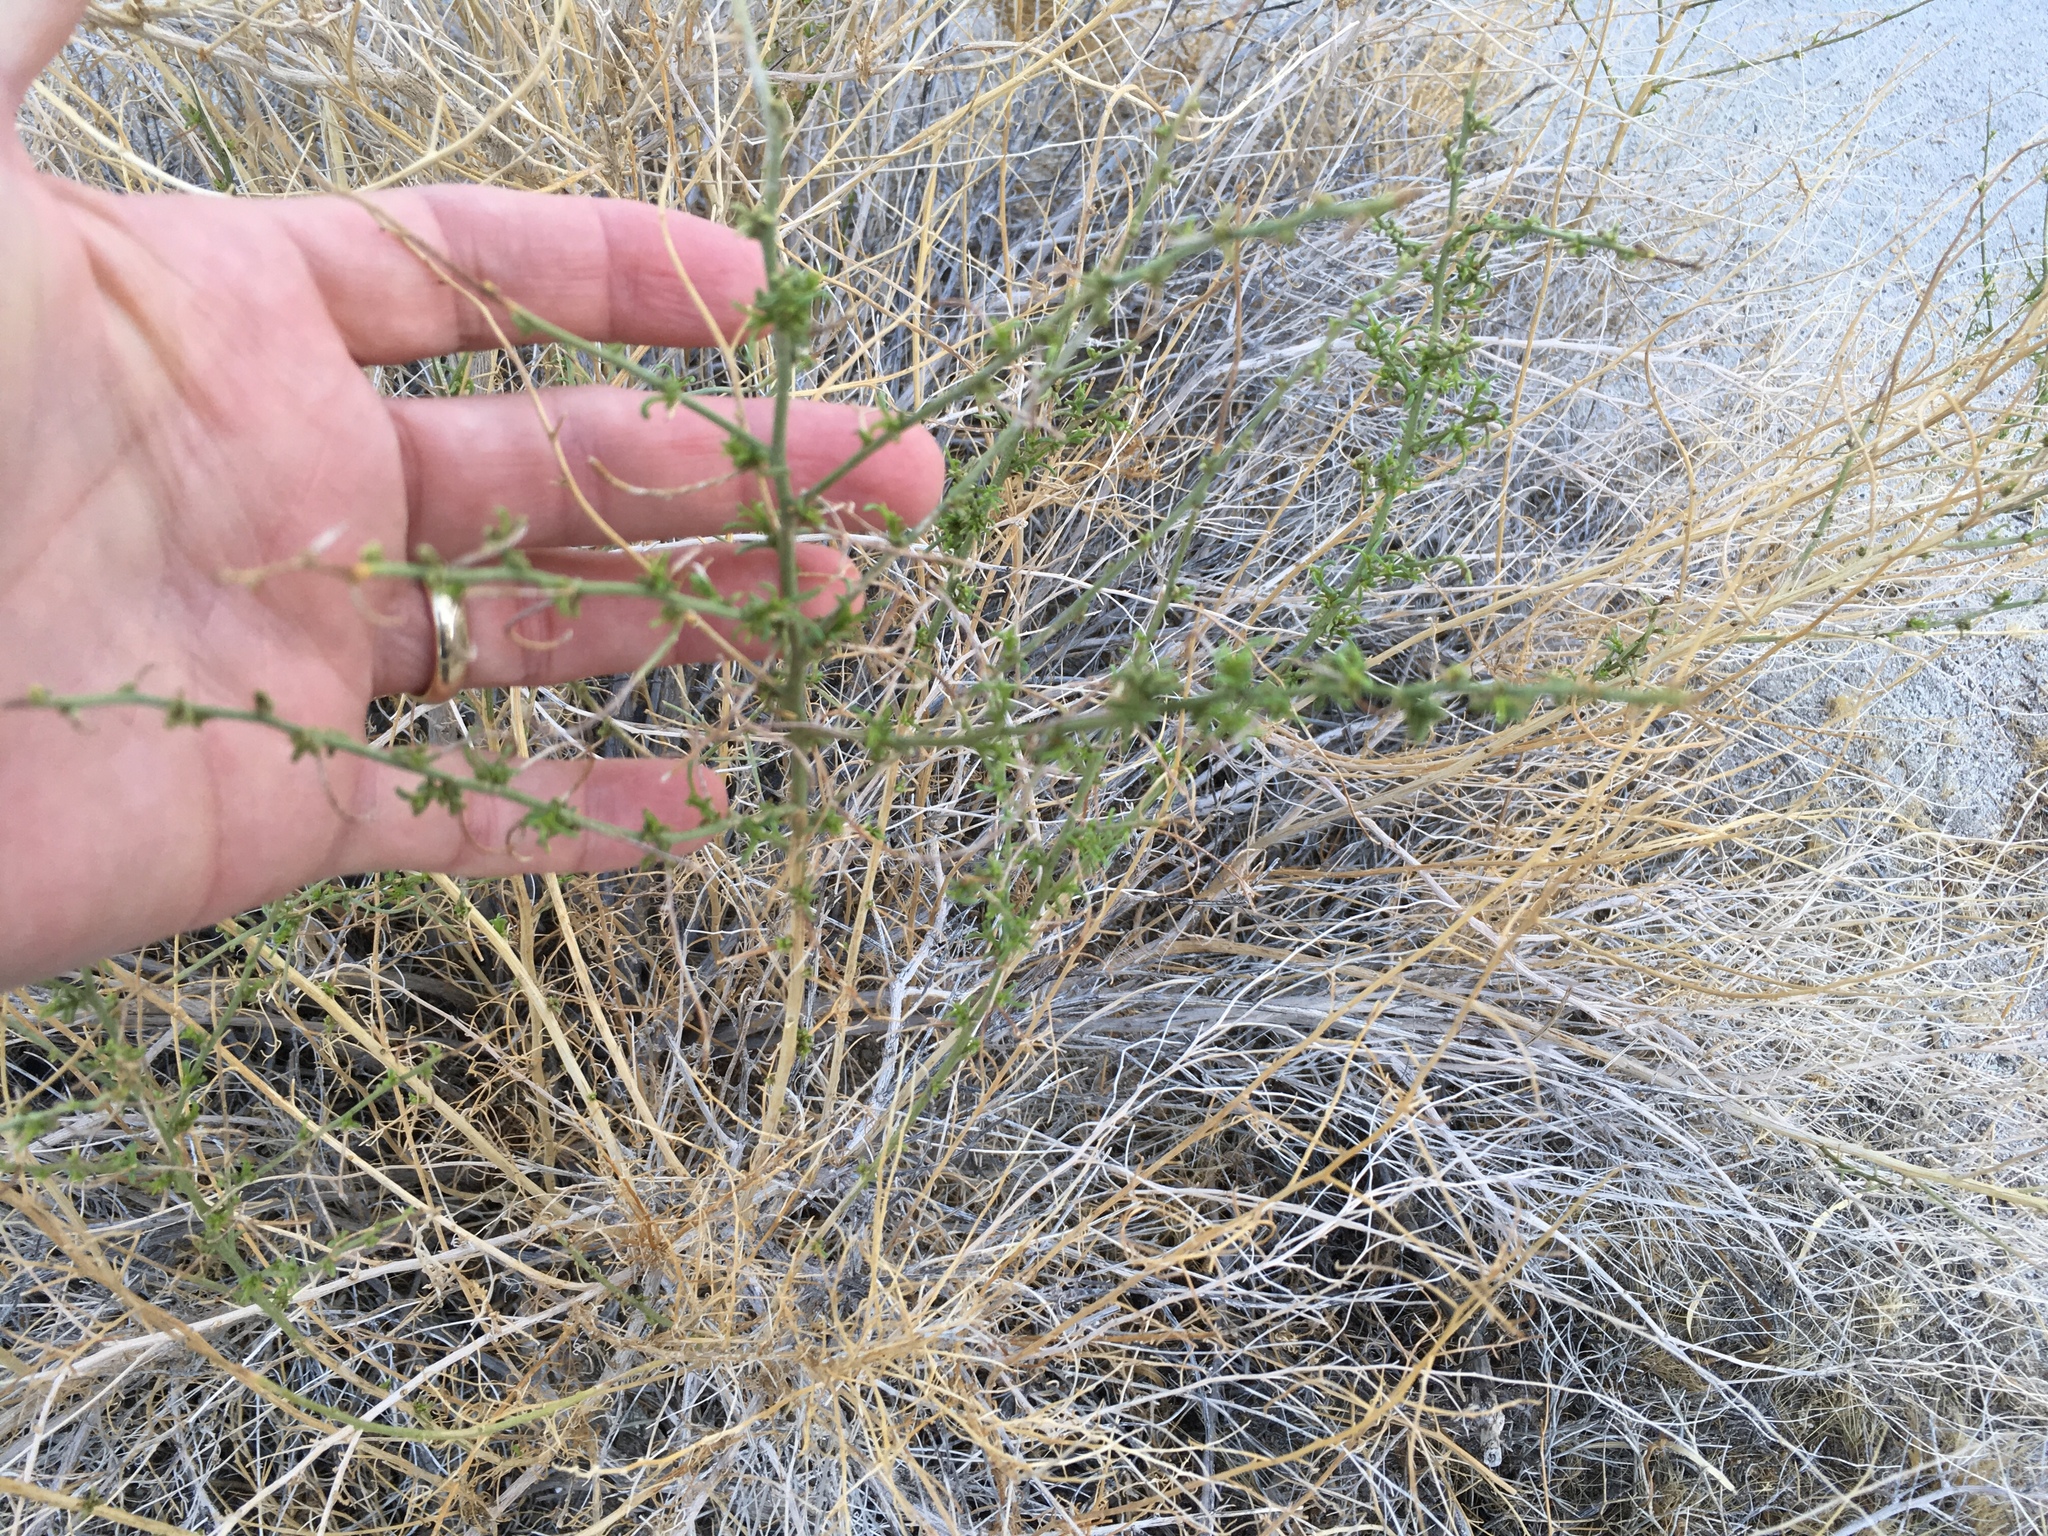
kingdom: Plantae
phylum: Tracheophyta
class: Magnoliopsida
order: Asterales
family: Asteraceae
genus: Ambrosia
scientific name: Ambrosia salsola
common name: Burrobrush
